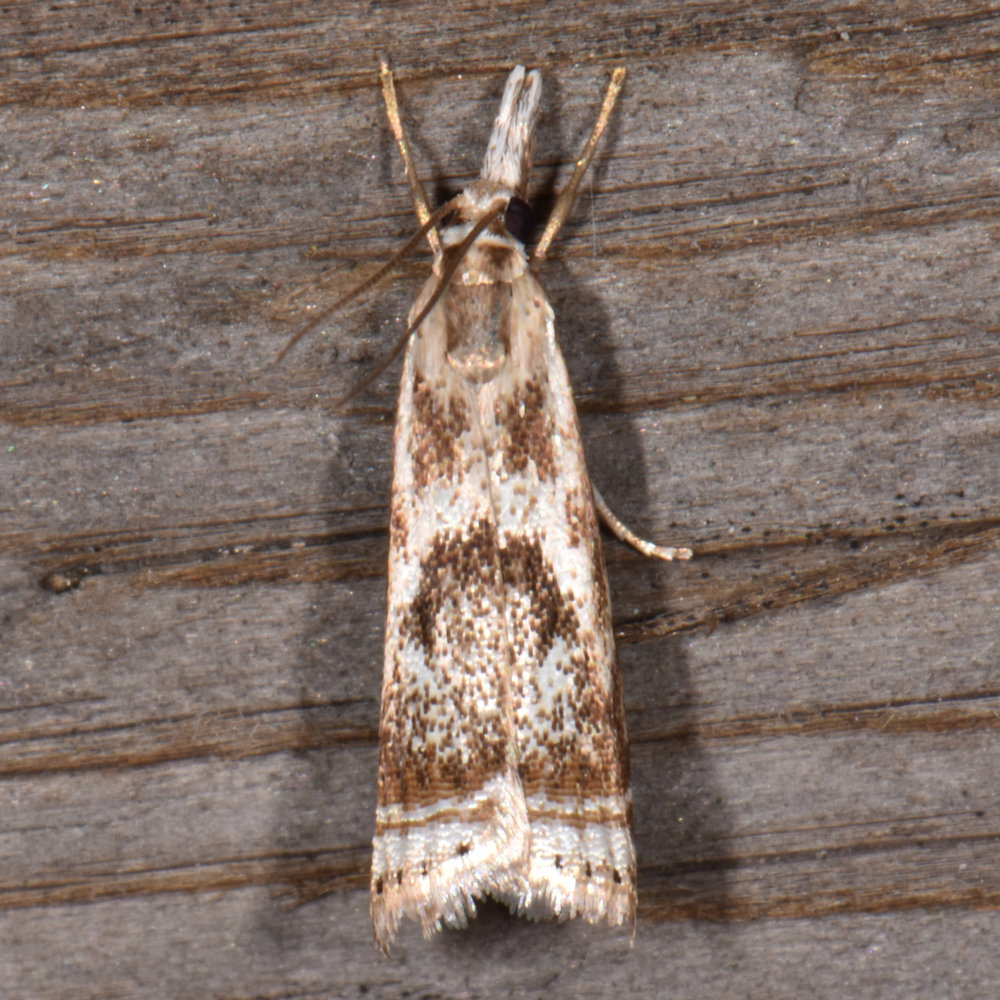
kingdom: Animalia
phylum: Arthropoda
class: Insecta
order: Lepidoptera
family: Crambidae
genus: Microcrambus
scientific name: Microcrambus elegans
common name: Elegant grass-veneer
